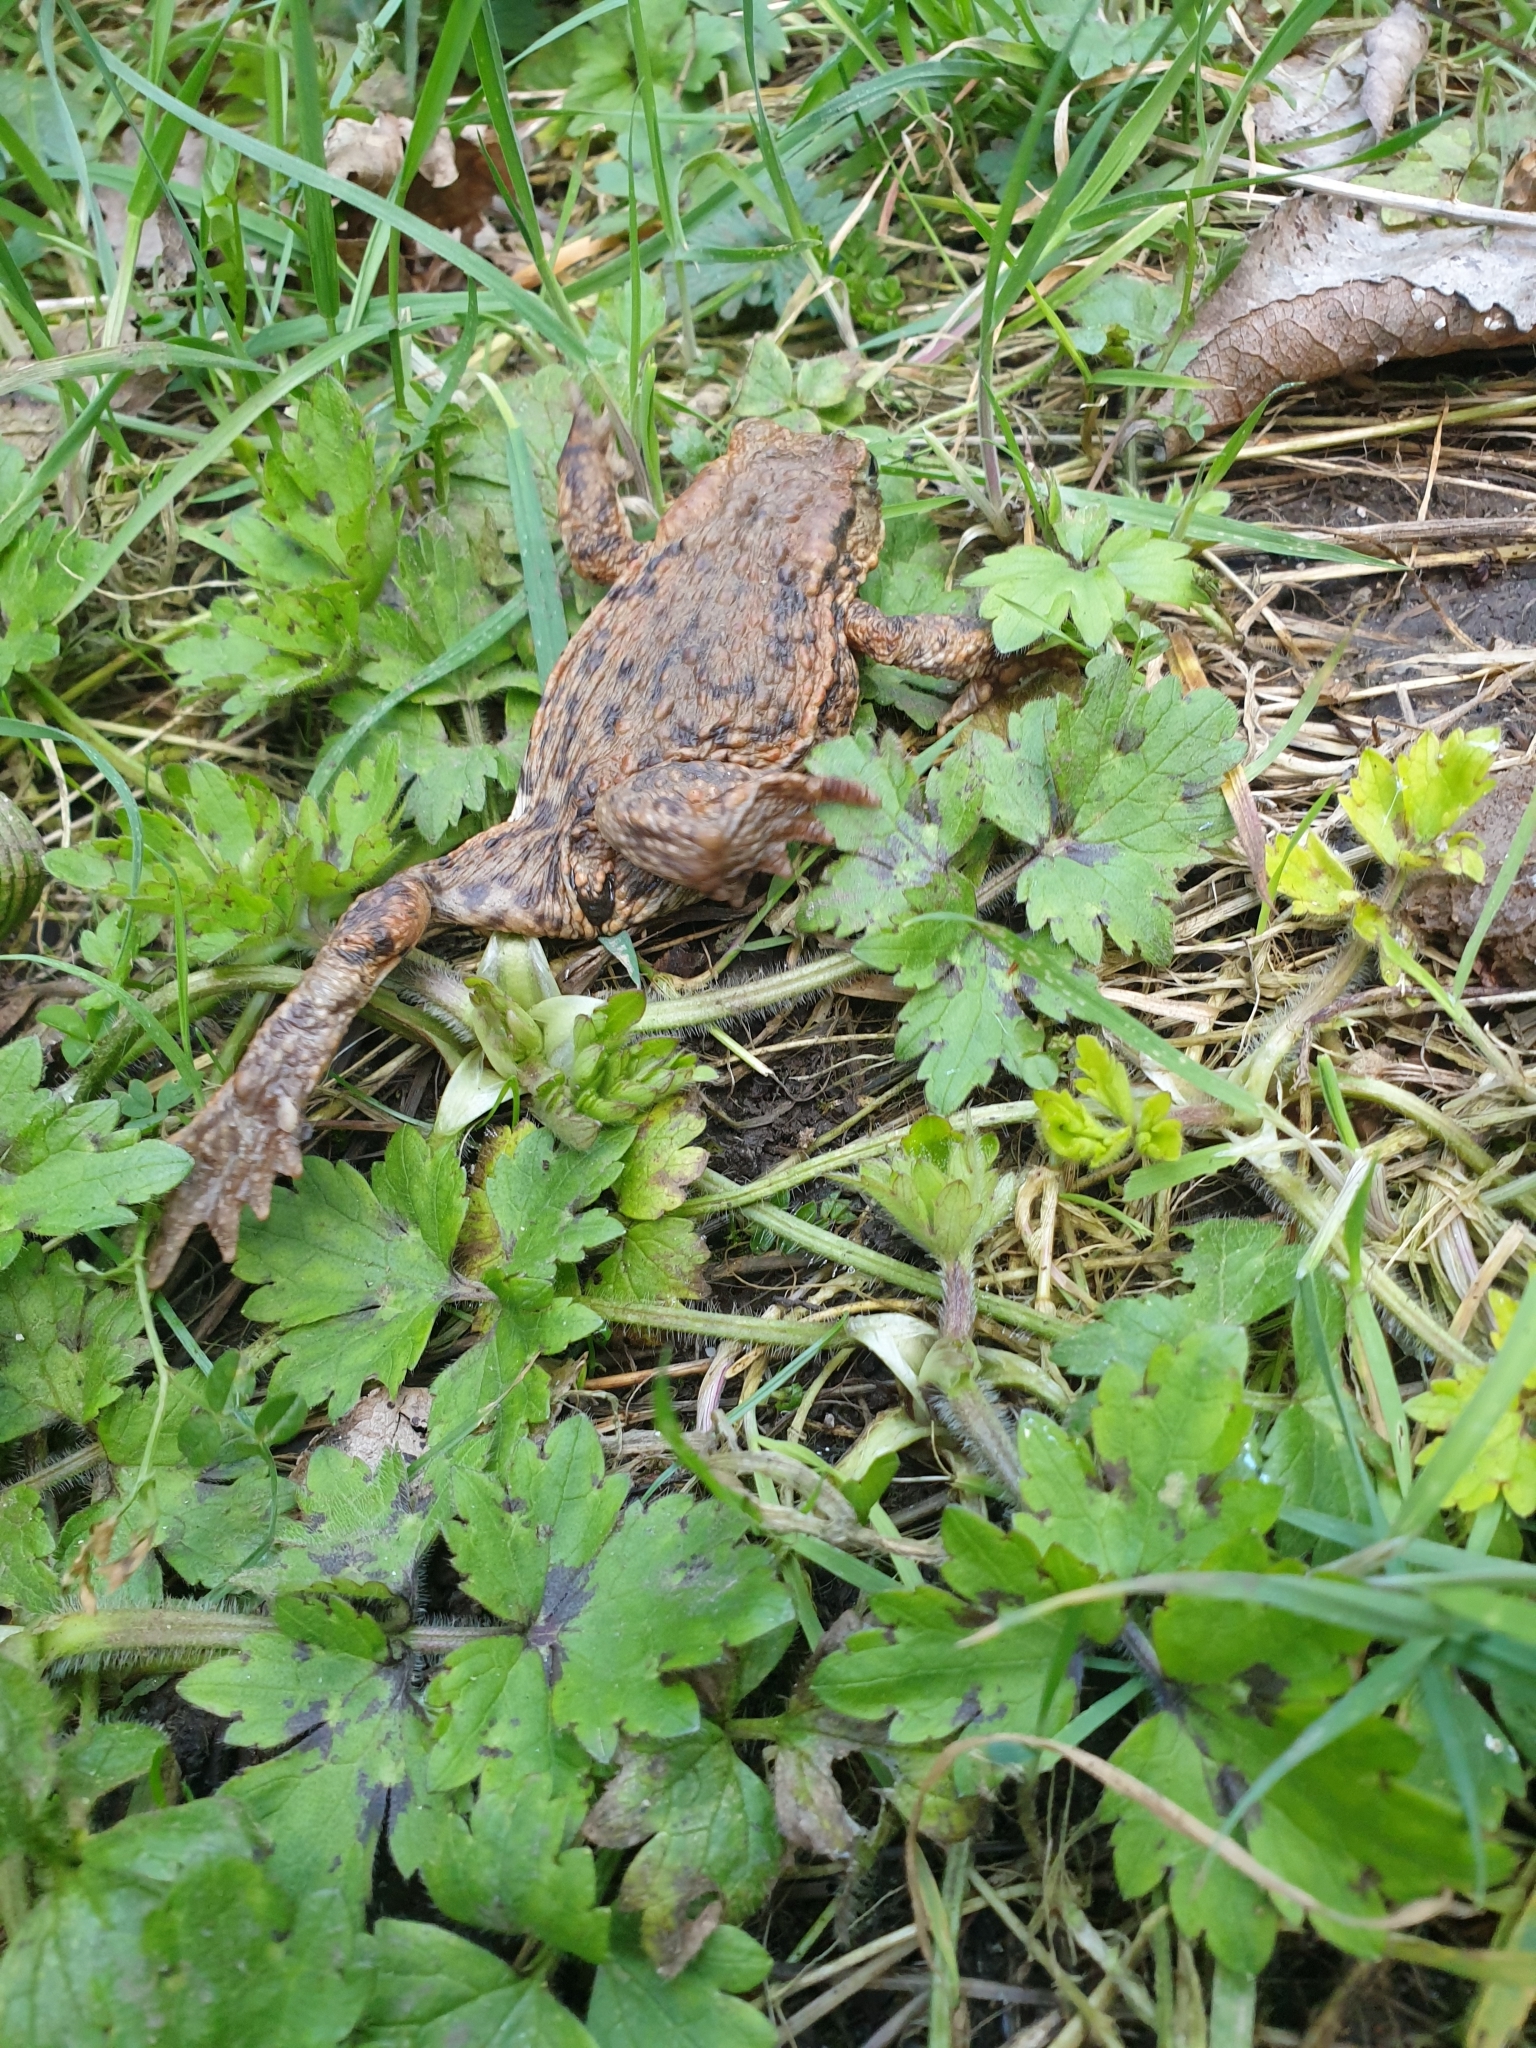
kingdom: Animalia
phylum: Chordata
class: Amphibia
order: Anura
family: Bufonidae
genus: Bufo
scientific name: Bufo bufo
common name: Common toad
